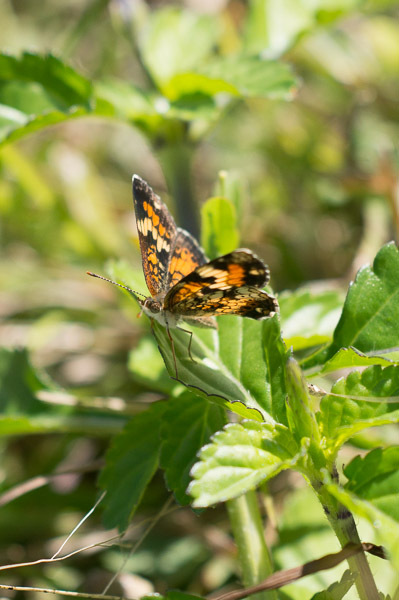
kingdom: Animalia
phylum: Arthropoda
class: Insecta
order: Lepidoptera
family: Nymphalidae
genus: Phyciodes
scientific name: Phyciodes phaon
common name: Phaon crescent
